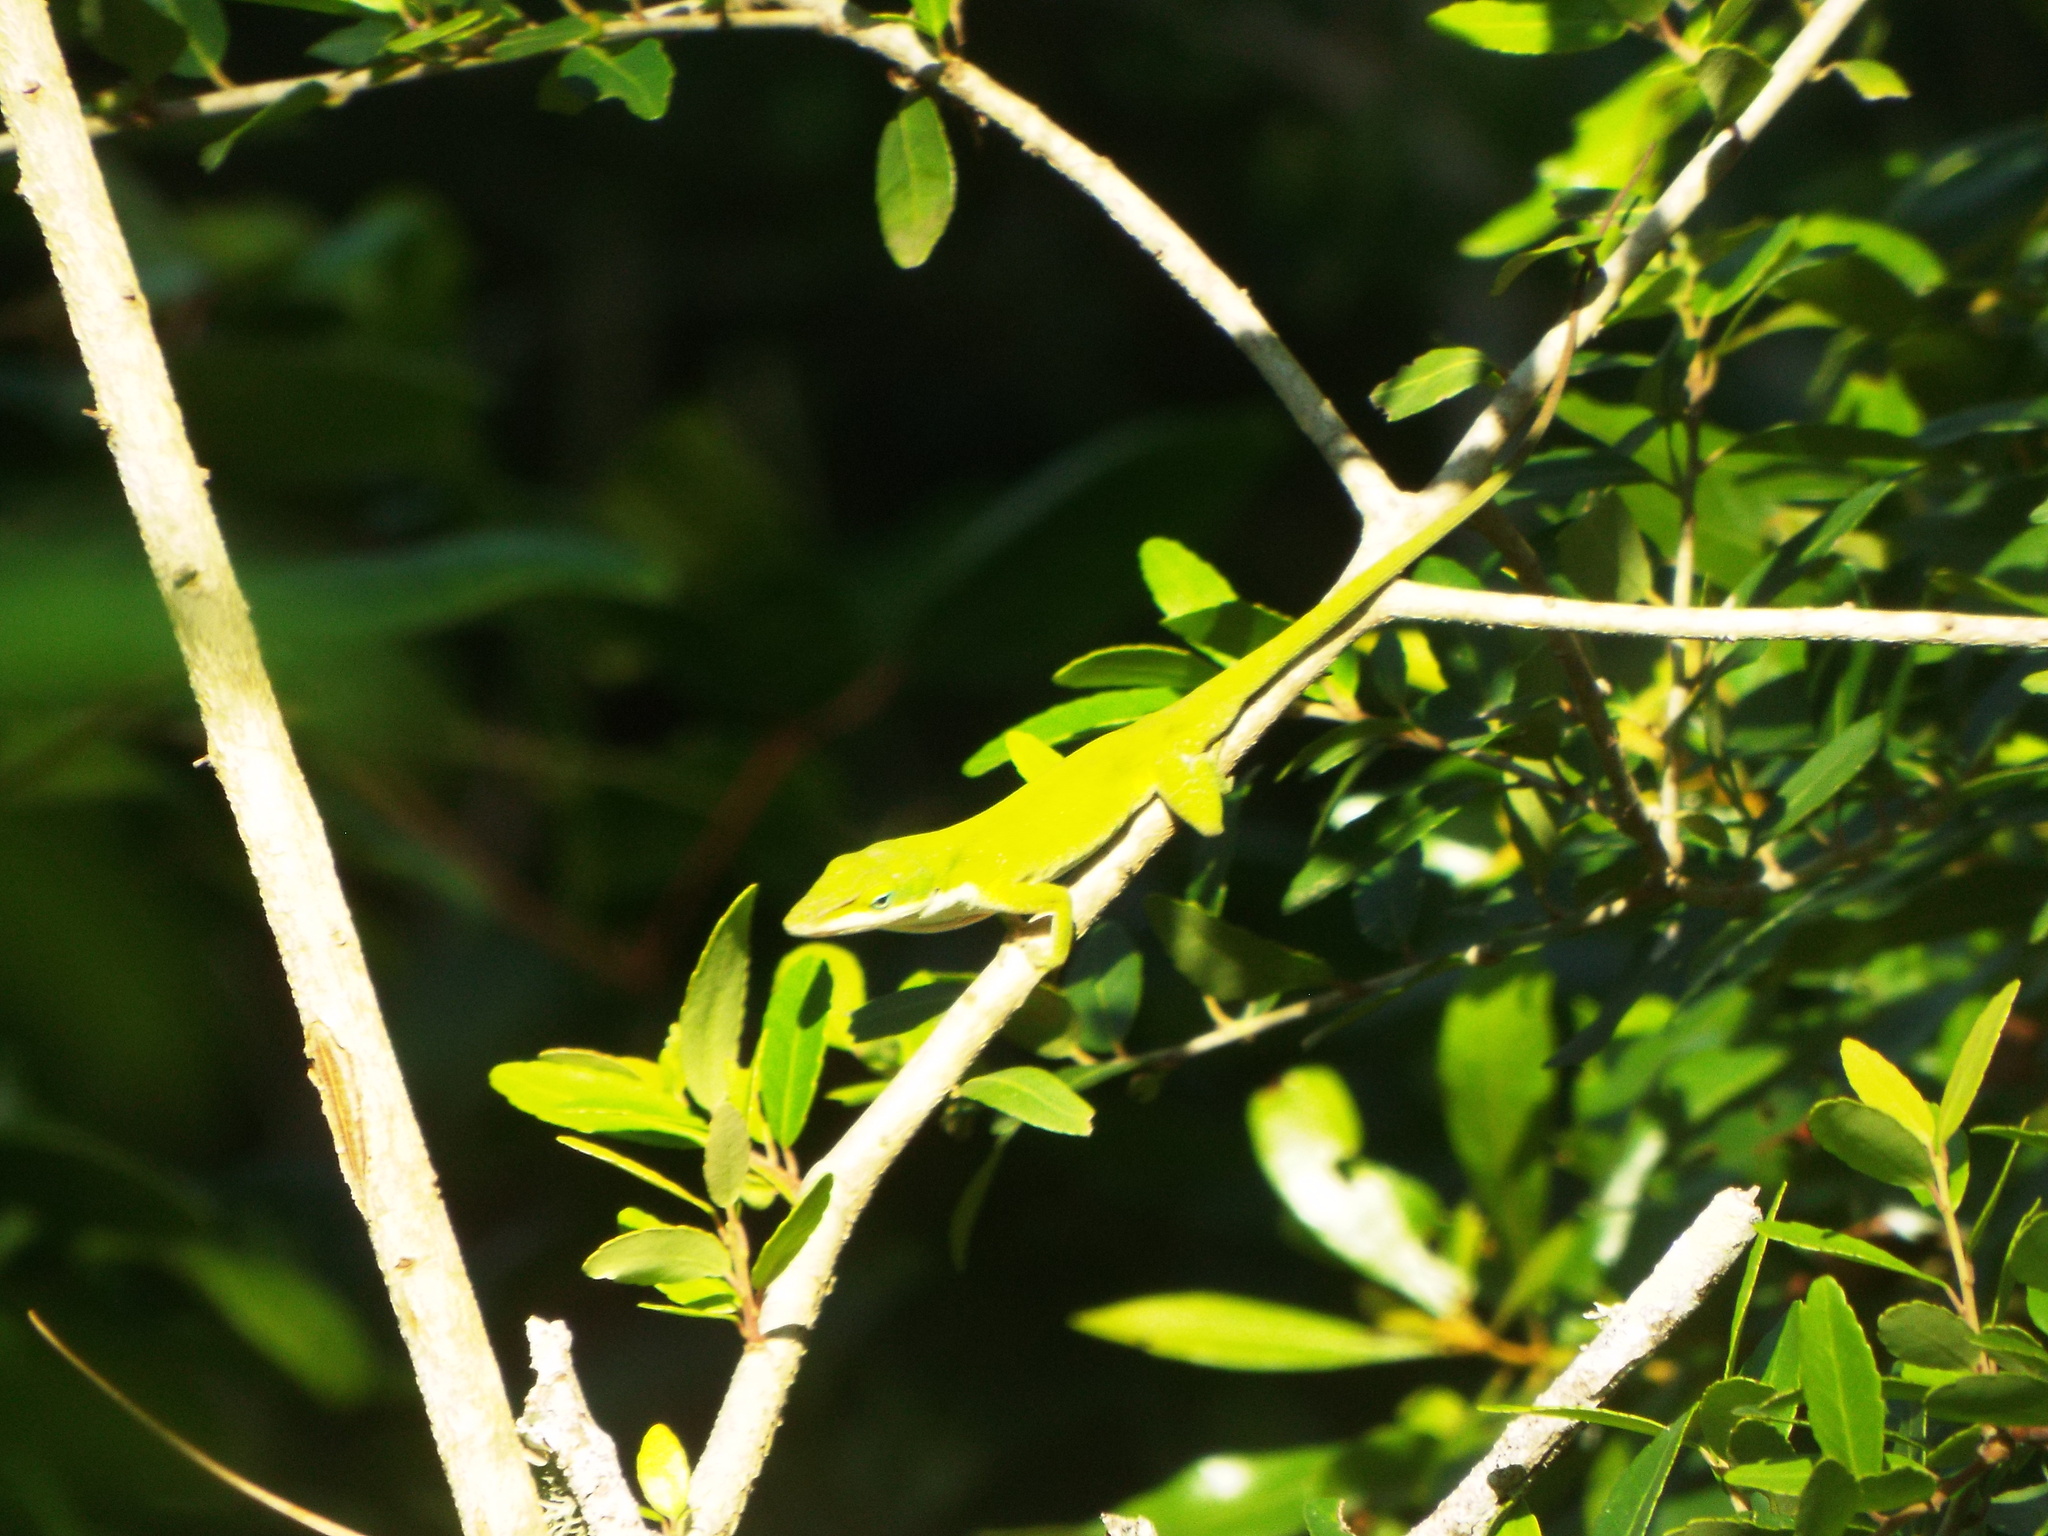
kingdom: Animalia
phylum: Chordata
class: Squamata
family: Dactyloidae
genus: Anolis
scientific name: Anolis carolinensis
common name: Green anole
